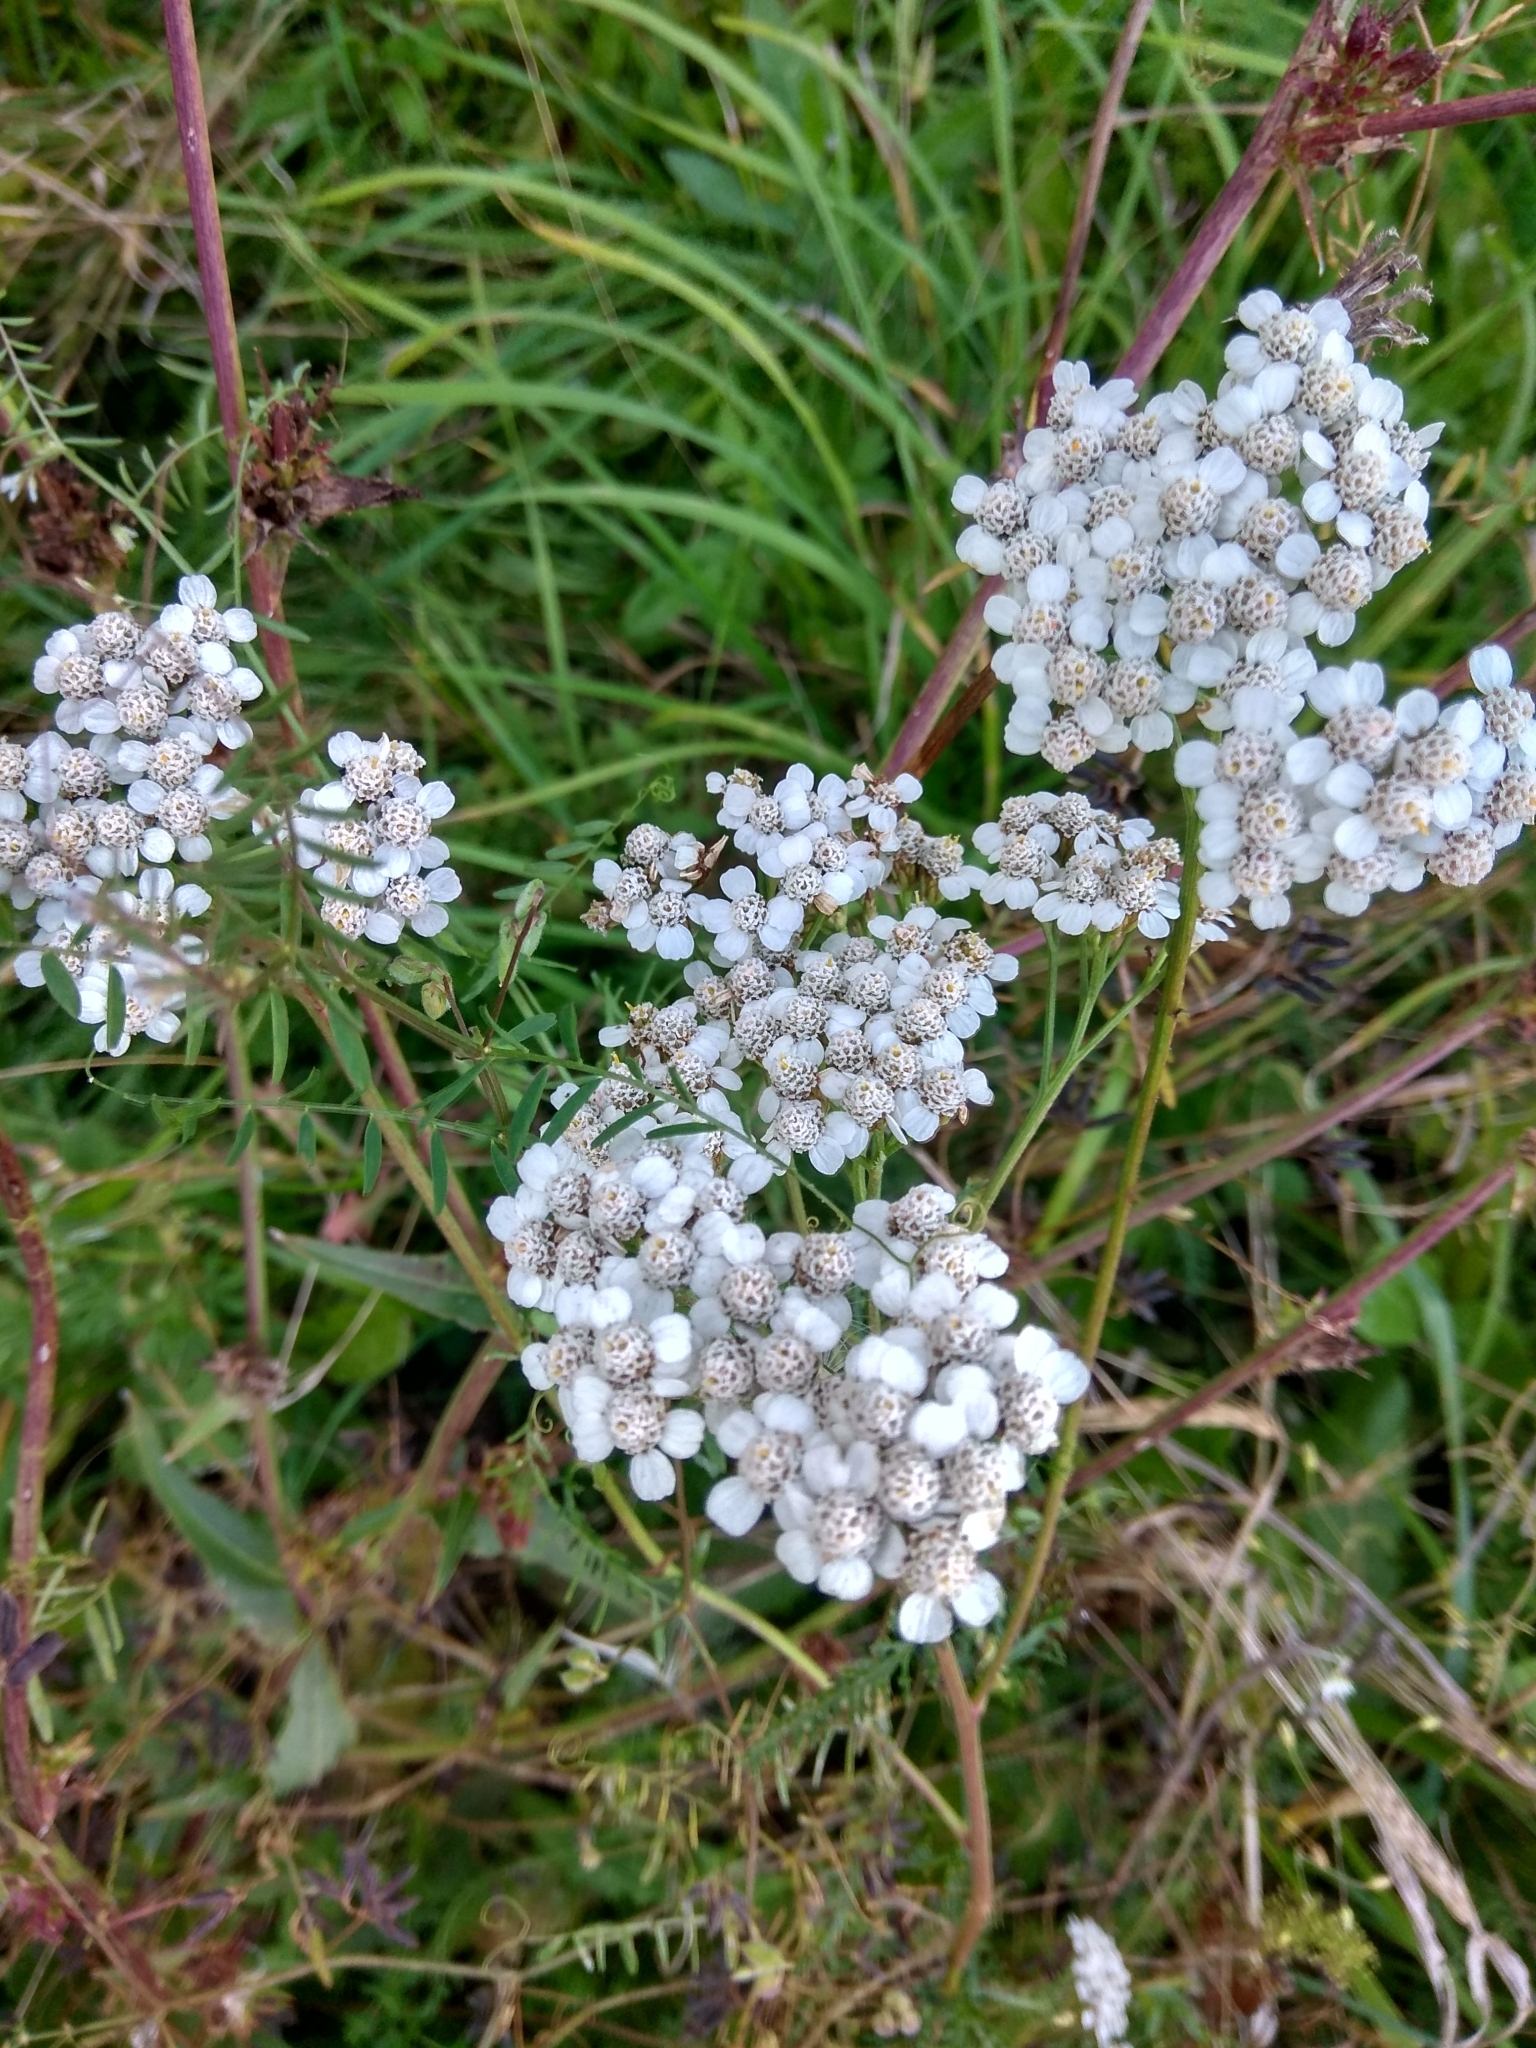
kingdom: Plantae
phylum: Tracheophyta
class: Magnoliopsida
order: Asterales
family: Asteraceae
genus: Achillea
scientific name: Achillea millefolium
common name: Yarrow
